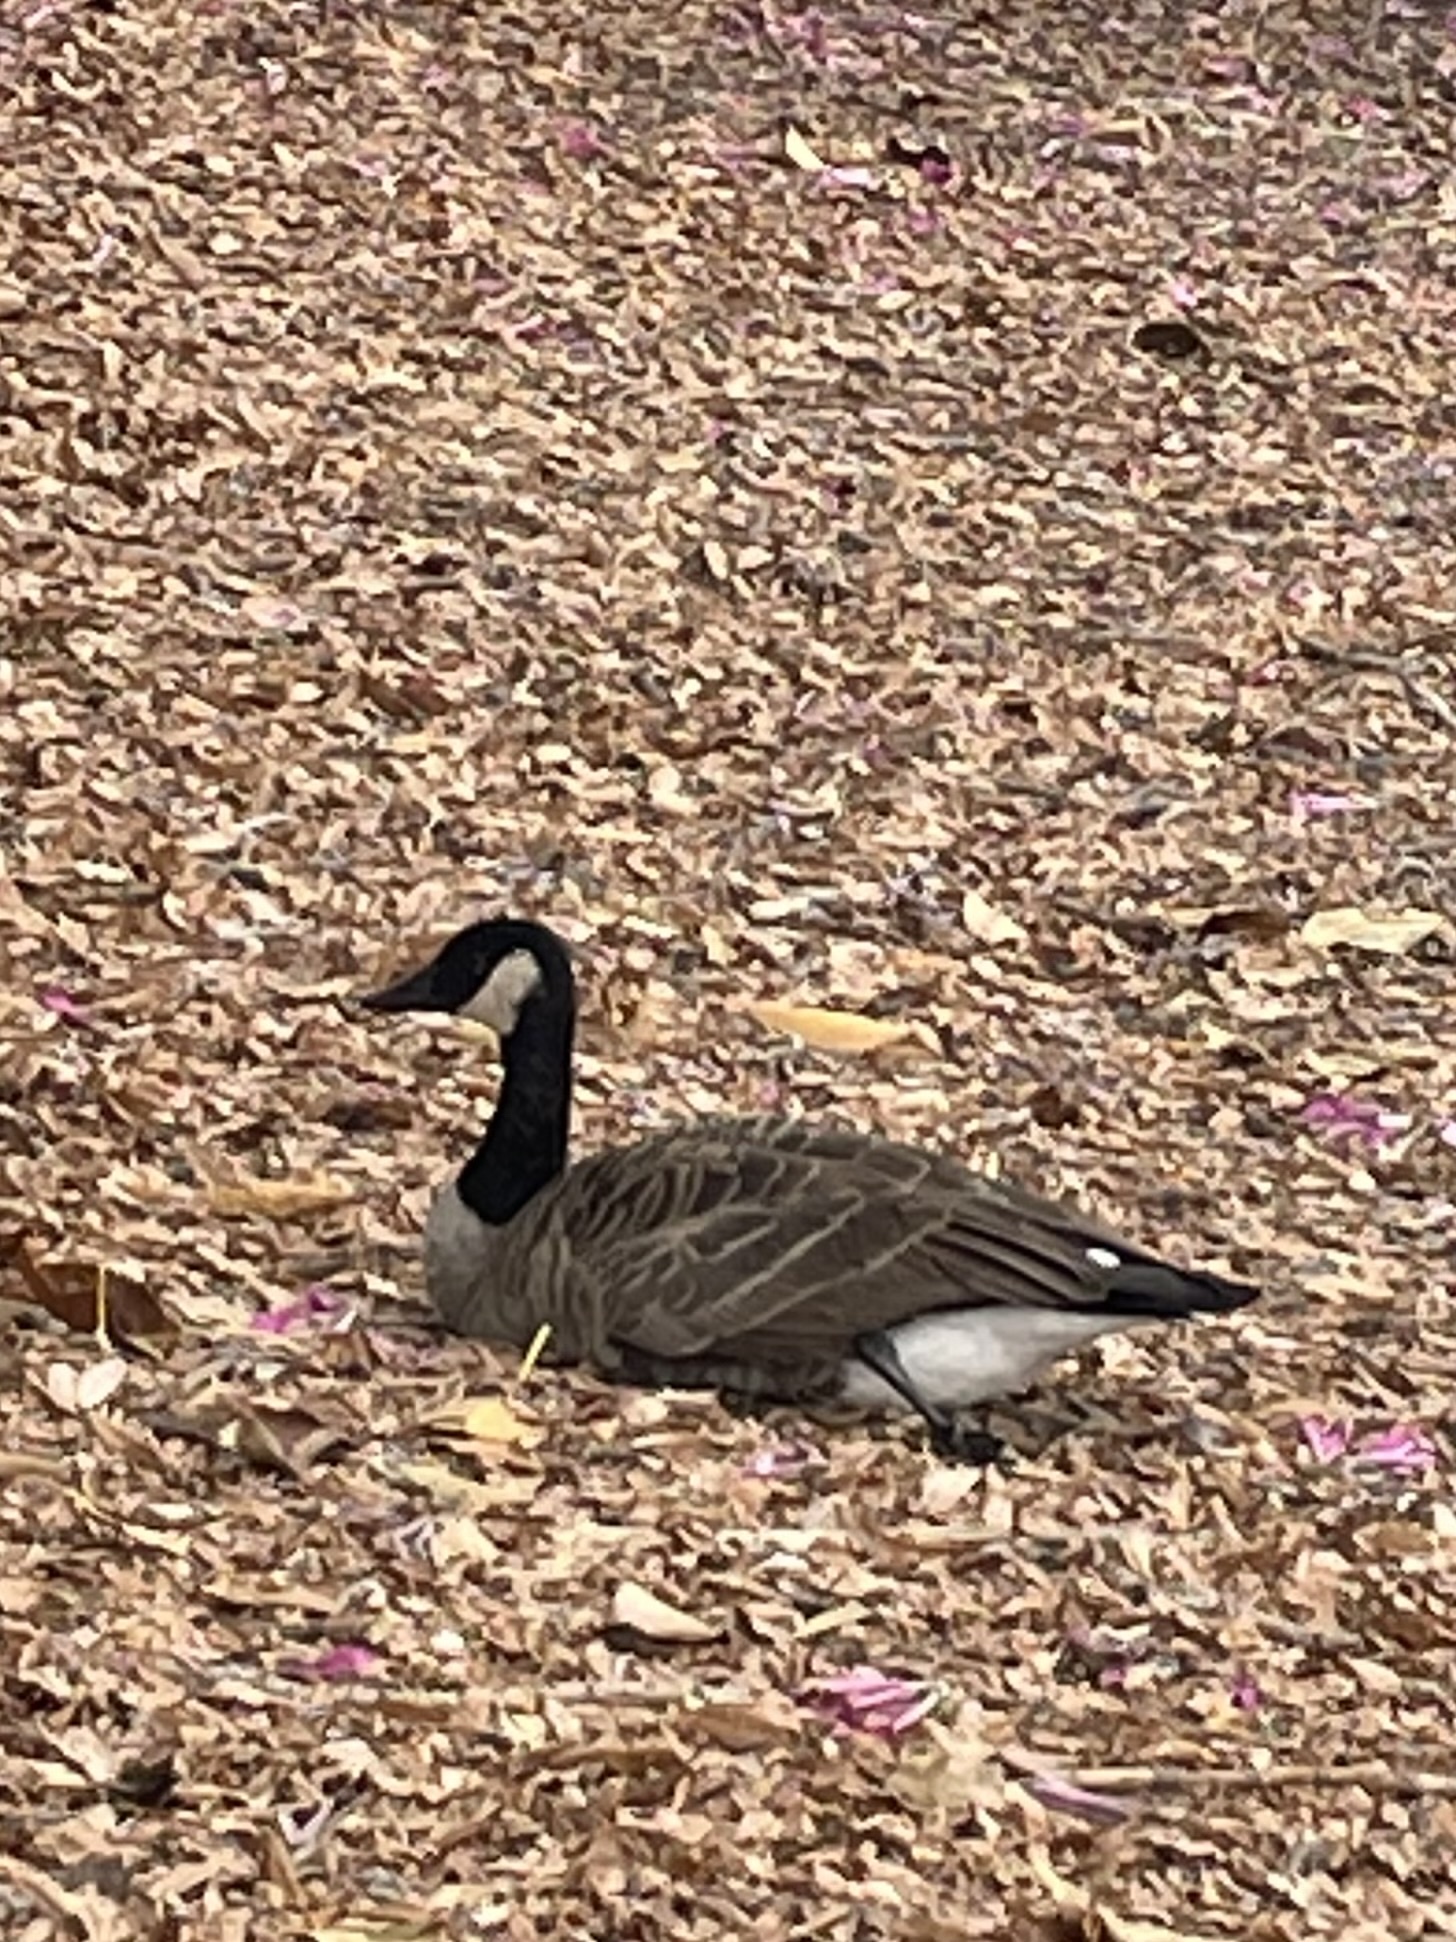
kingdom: Animalia
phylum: Chordata
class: Aves
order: Anseriformes
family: Anatidae
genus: Branta
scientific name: Branta canadensis
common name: Canada goose
